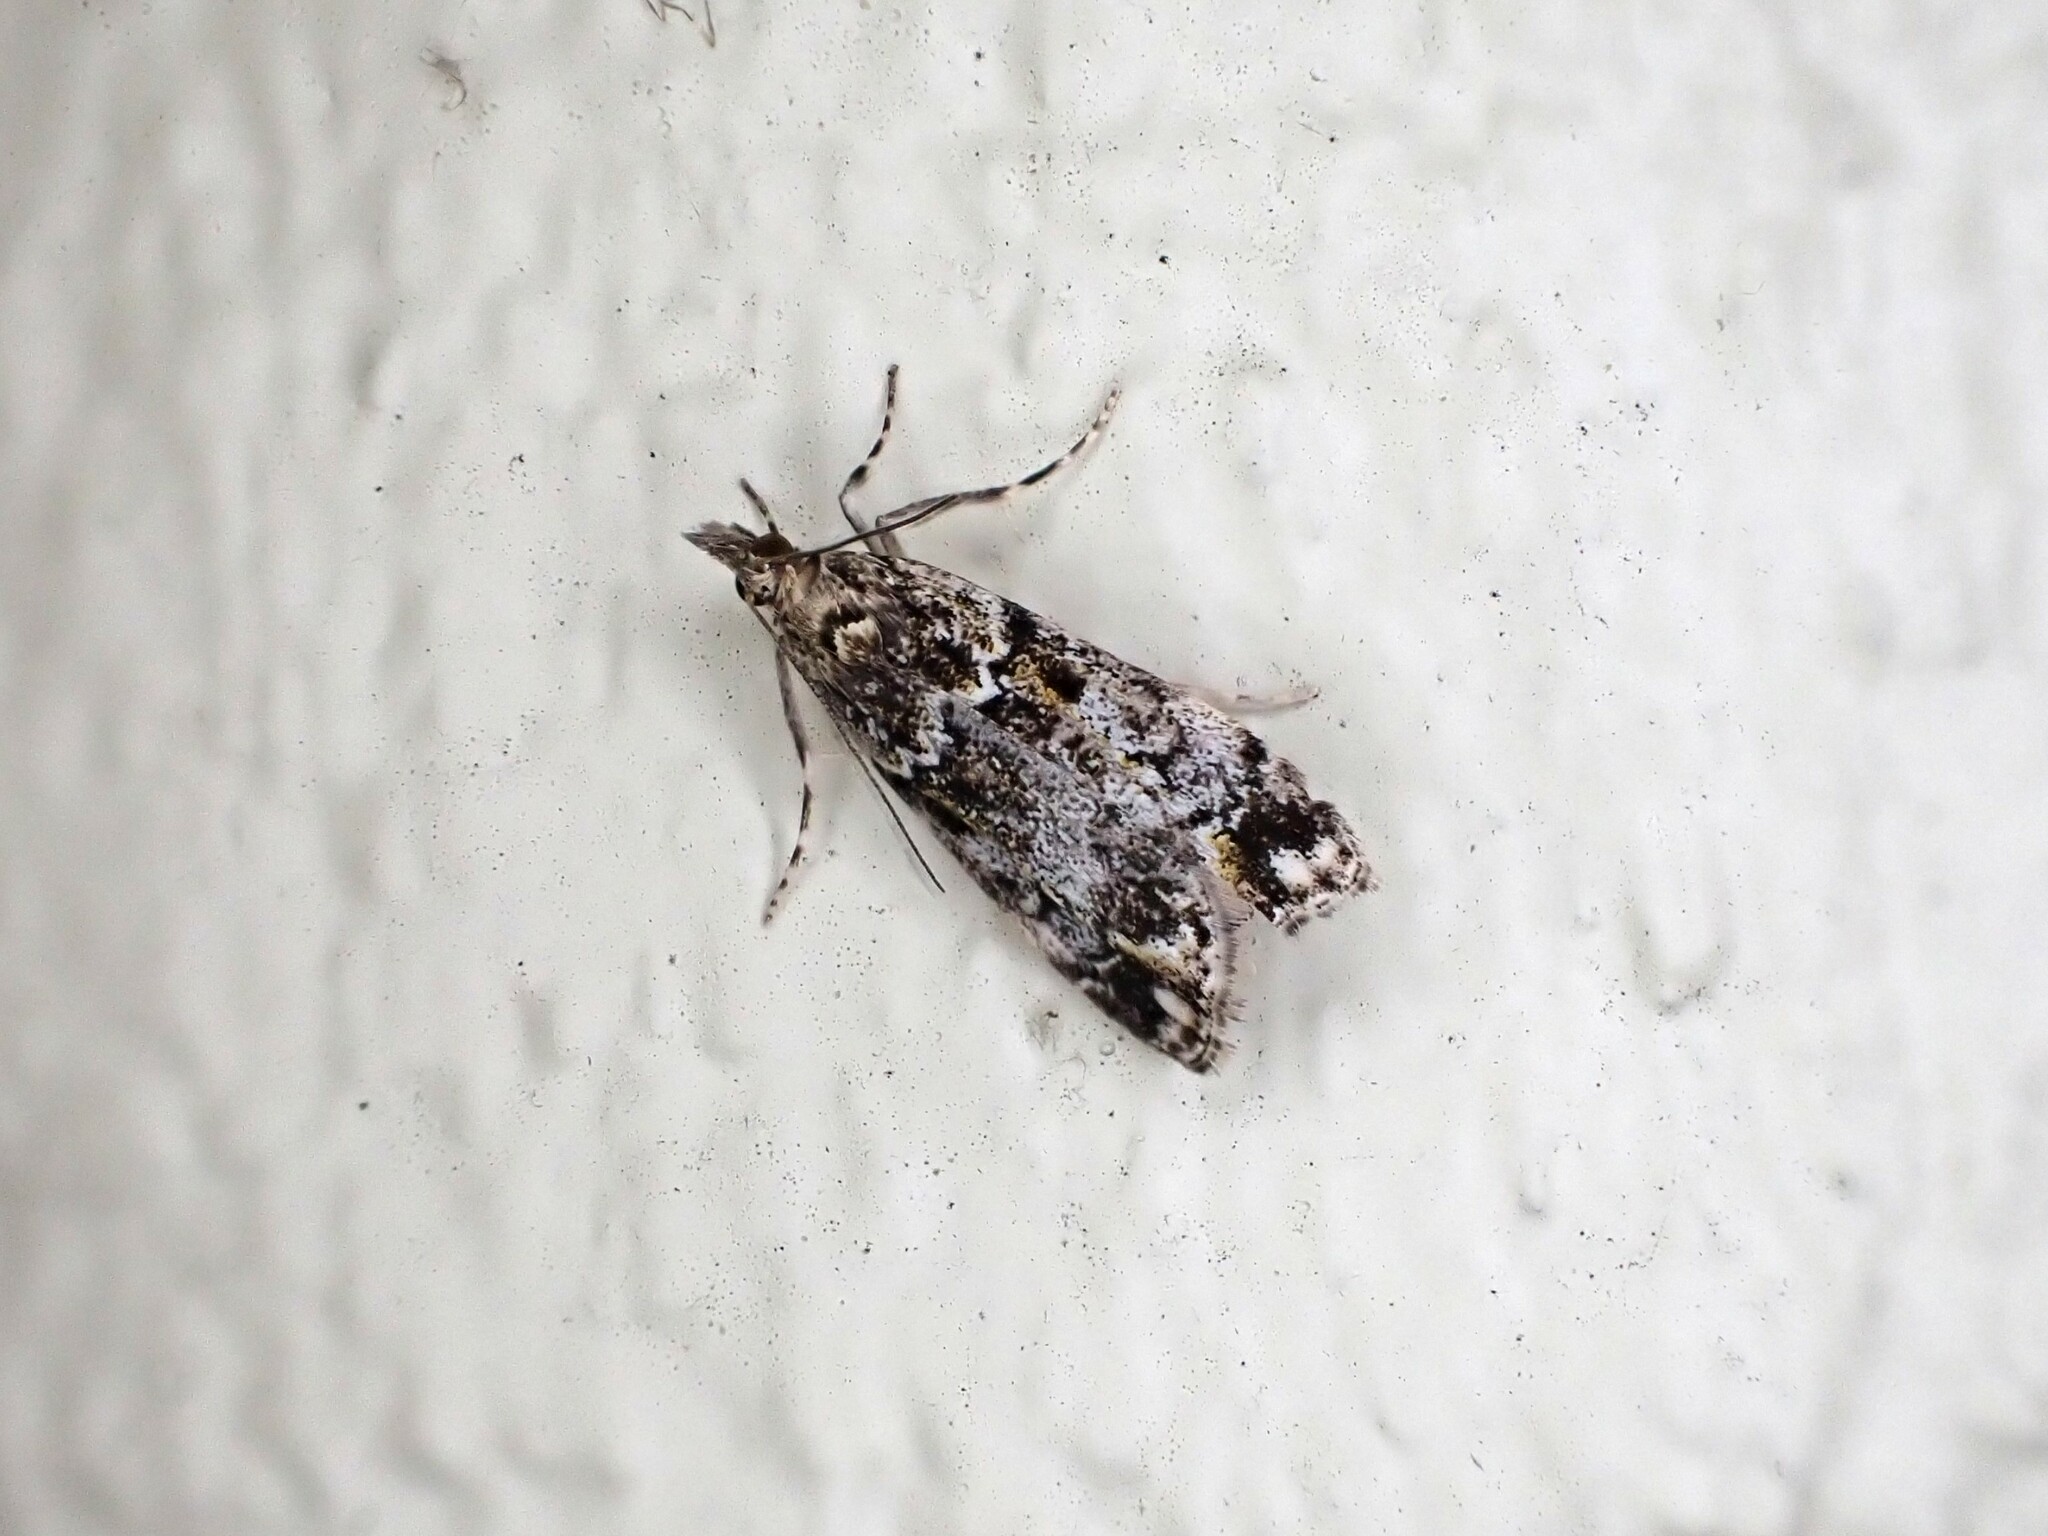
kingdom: Animalia
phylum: Arthropoda
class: Insecta
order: Lepidoptera
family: Crambidae
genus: Eudonia
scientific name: Eudonia minualis
